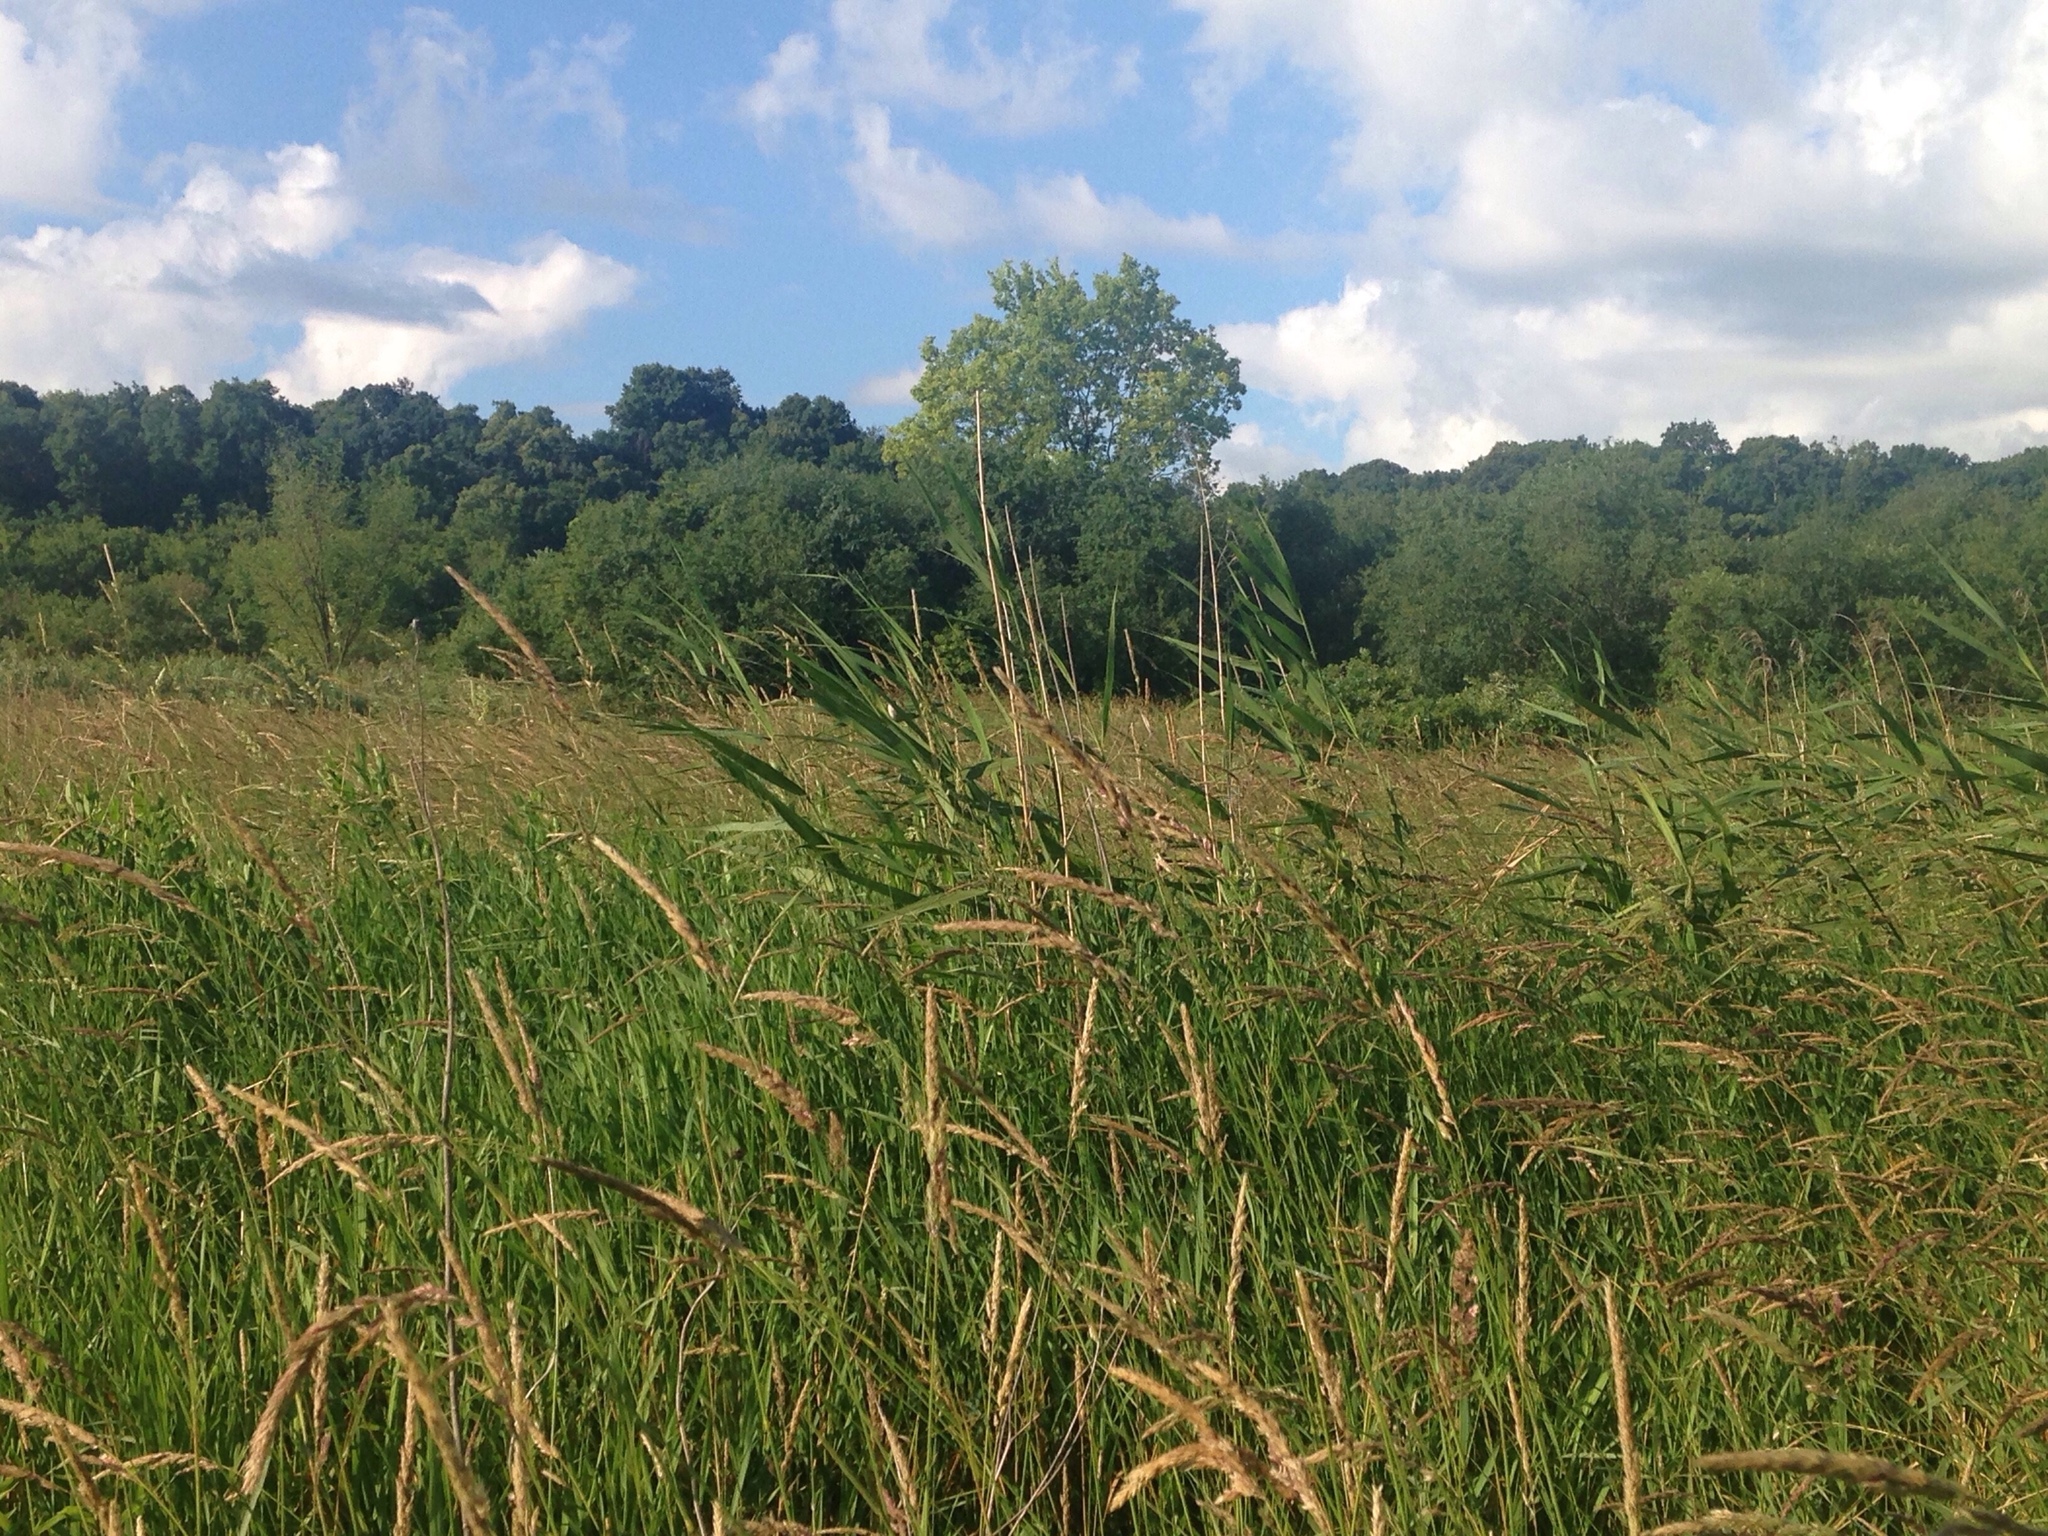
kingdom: Plantae
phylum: Tracheophyta
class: Liliopsida
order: Poales
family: Poaceae
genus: Phalaris
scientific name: Phalaris arundinacea
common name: Reed canary-grass
